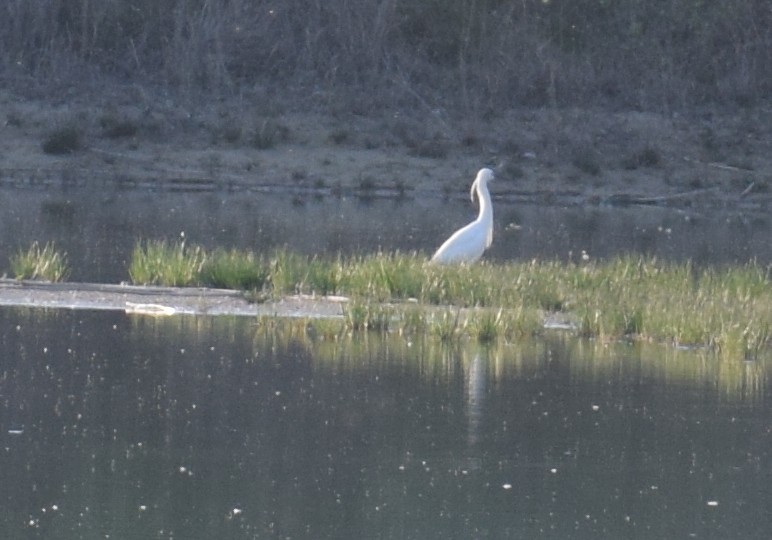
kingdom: Animalia
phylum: Chordata
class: Aves
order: Pelecaniformes
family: Ardeidae
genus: Egretta
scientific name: Egretta garzetta
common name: Little egret
